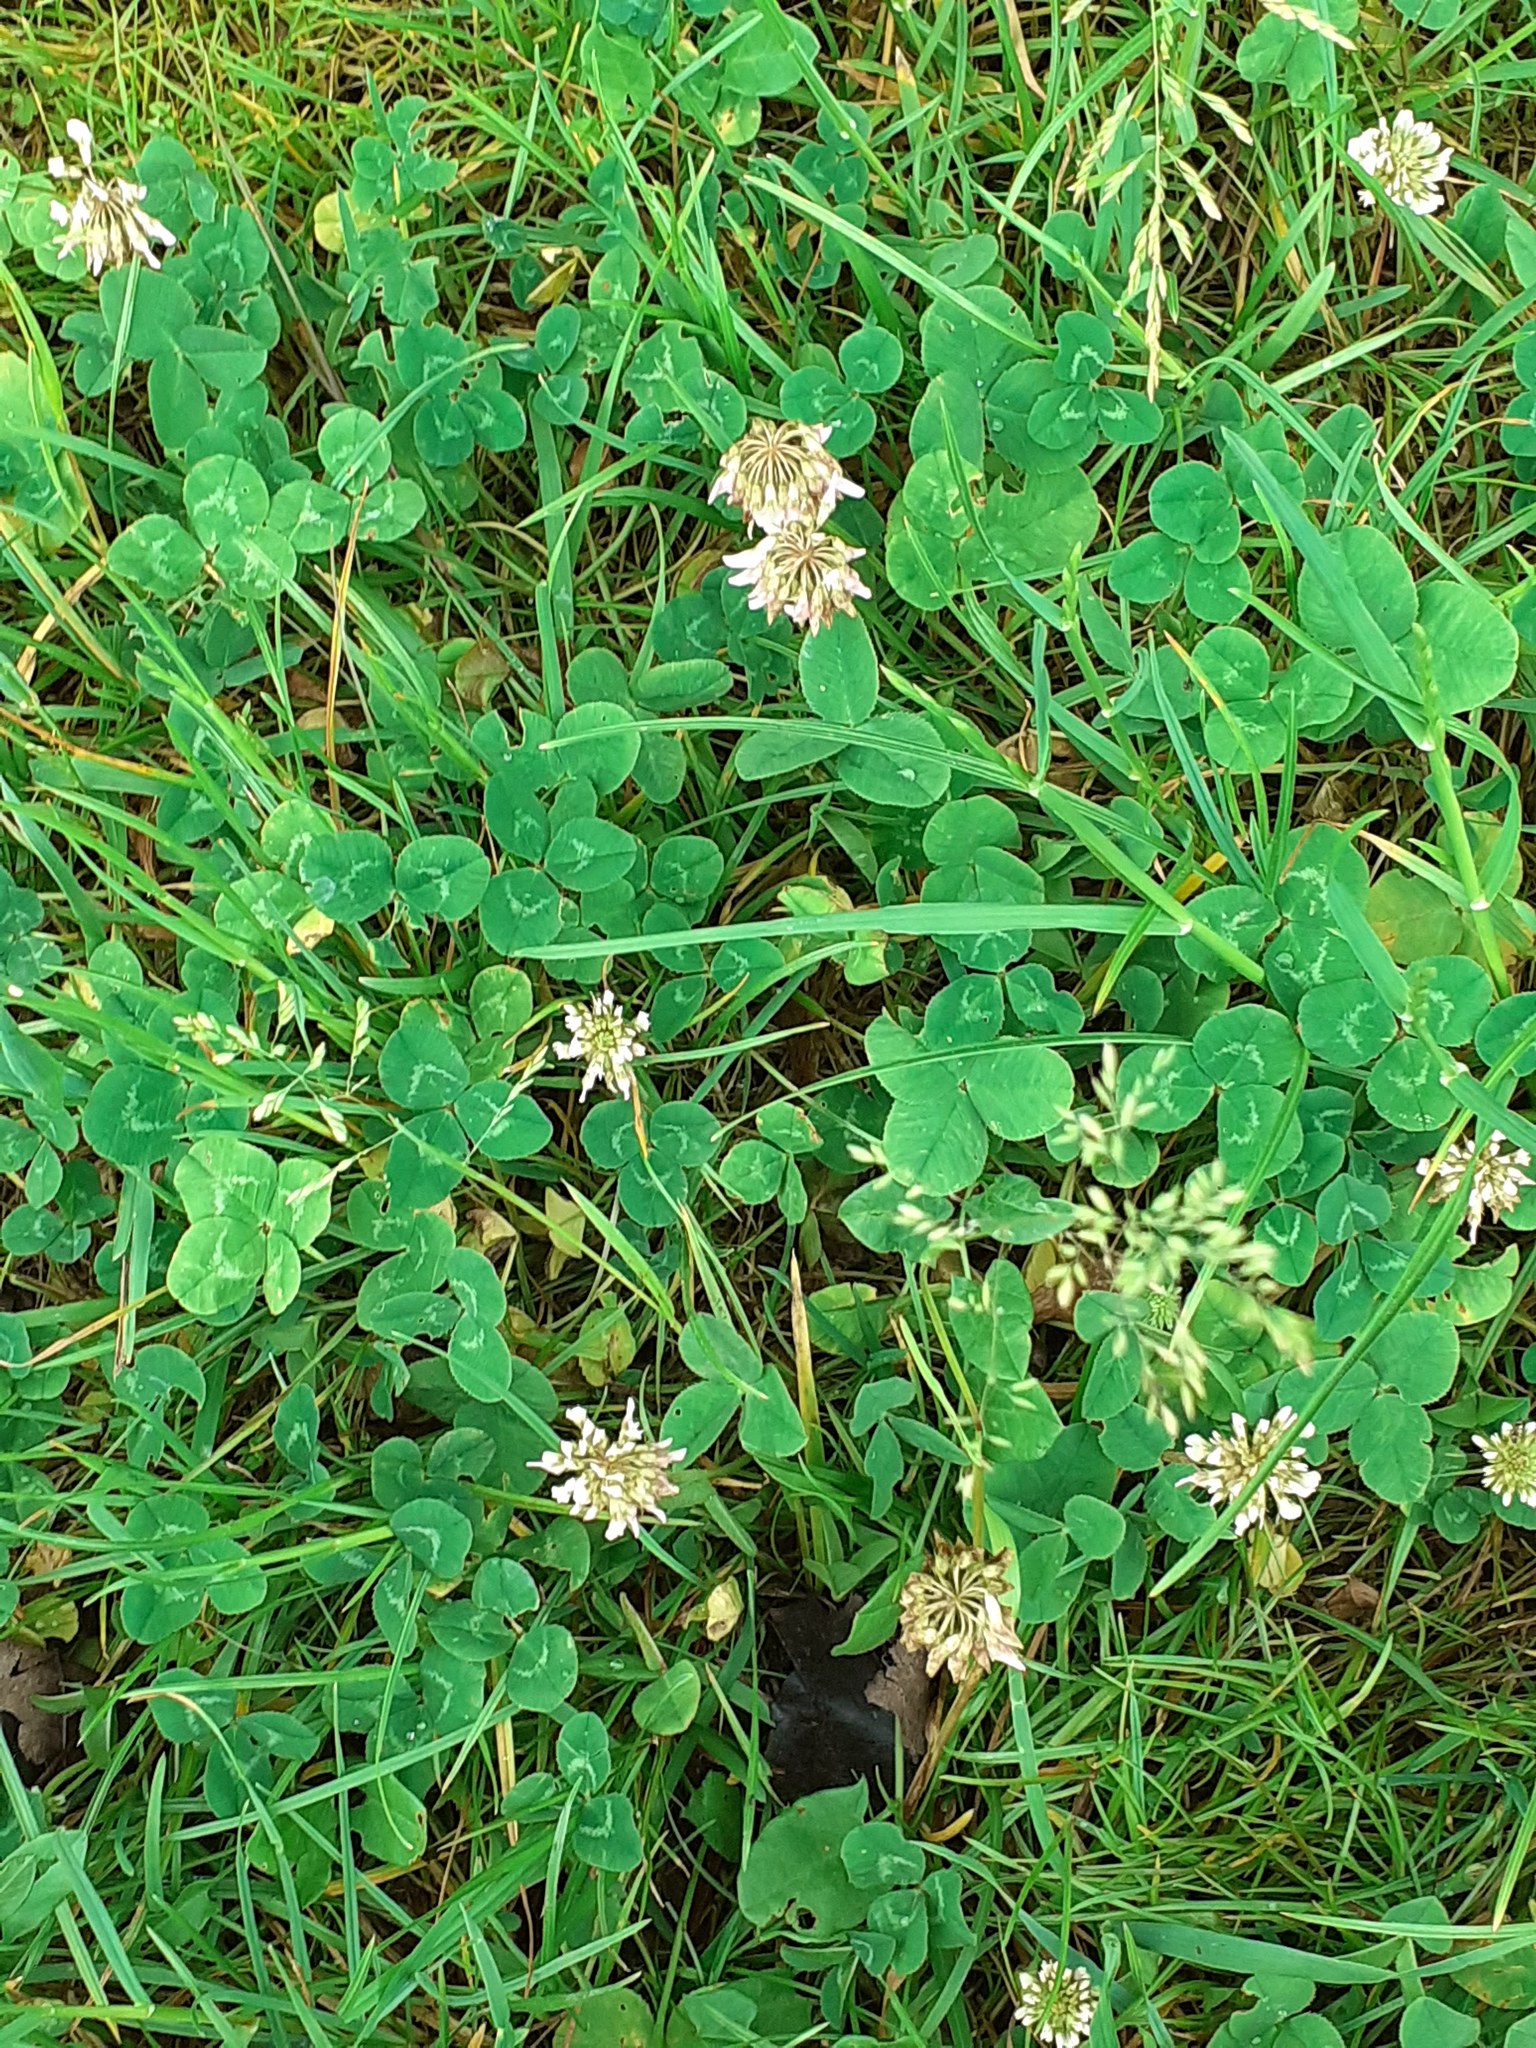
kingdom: Plantae
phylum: Tracheophyta
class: Magnoliopsida
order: Fabales
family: Fabaceae
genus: Trifolium
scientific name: Trifolium repens
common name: White clover
